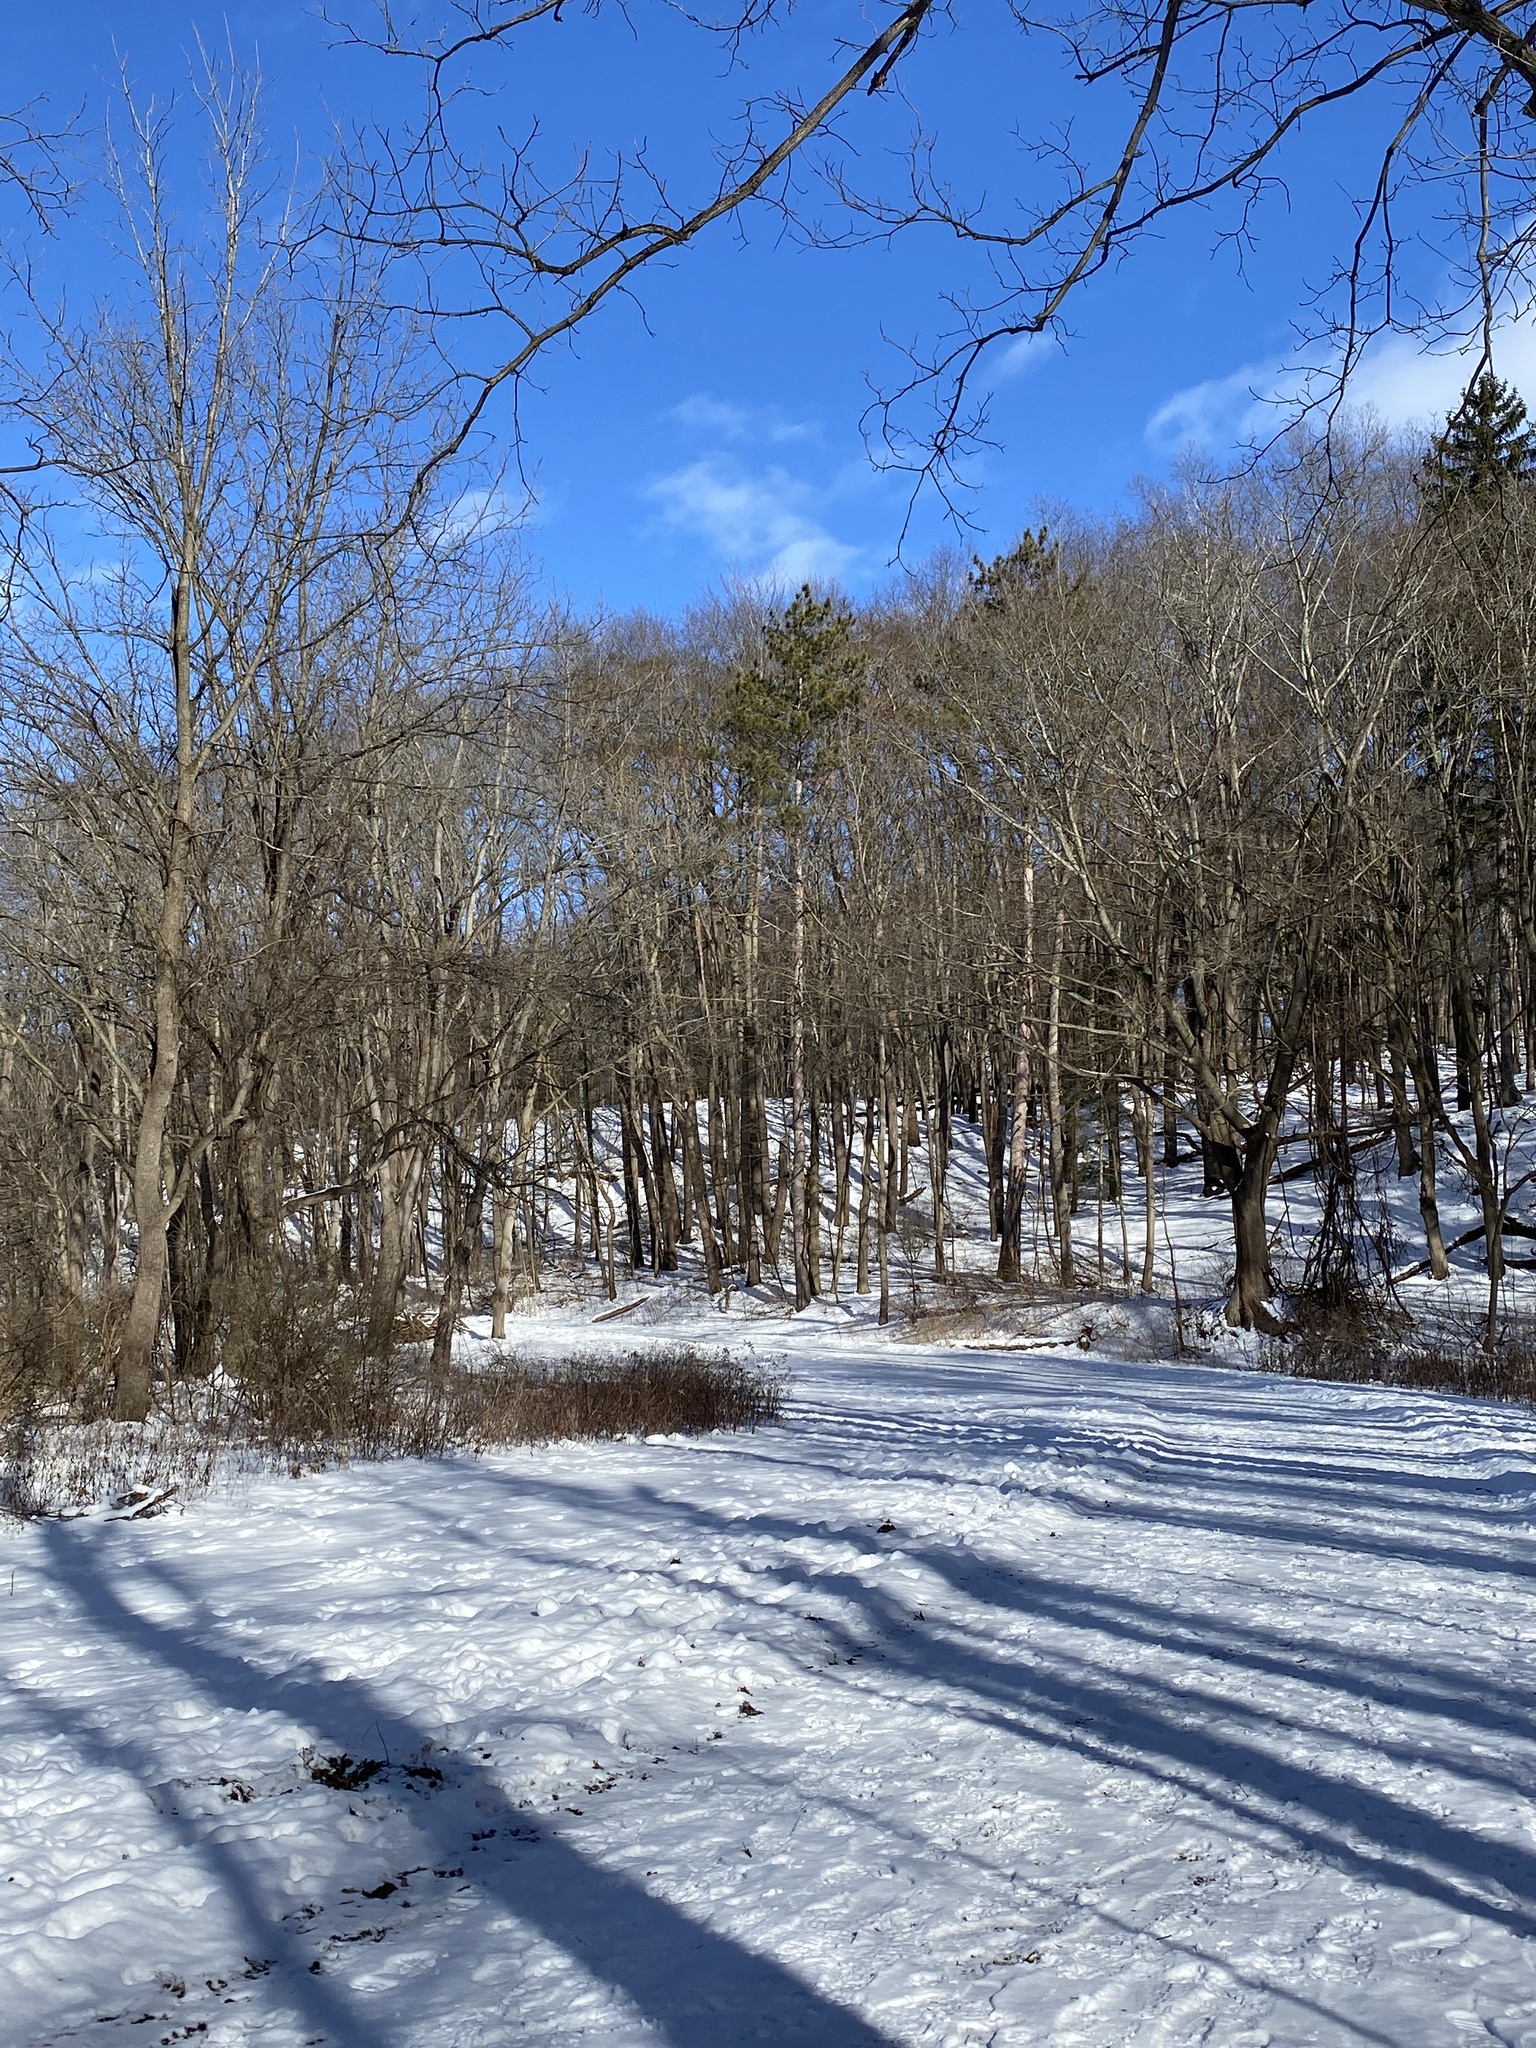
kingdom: Plantae
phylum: Tracheophyta
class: Polypodiopsida
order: Polypodiales
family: Onocleaceae
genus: Onoclea
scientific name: Onoclea sensibilis
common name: Sensitive fern
